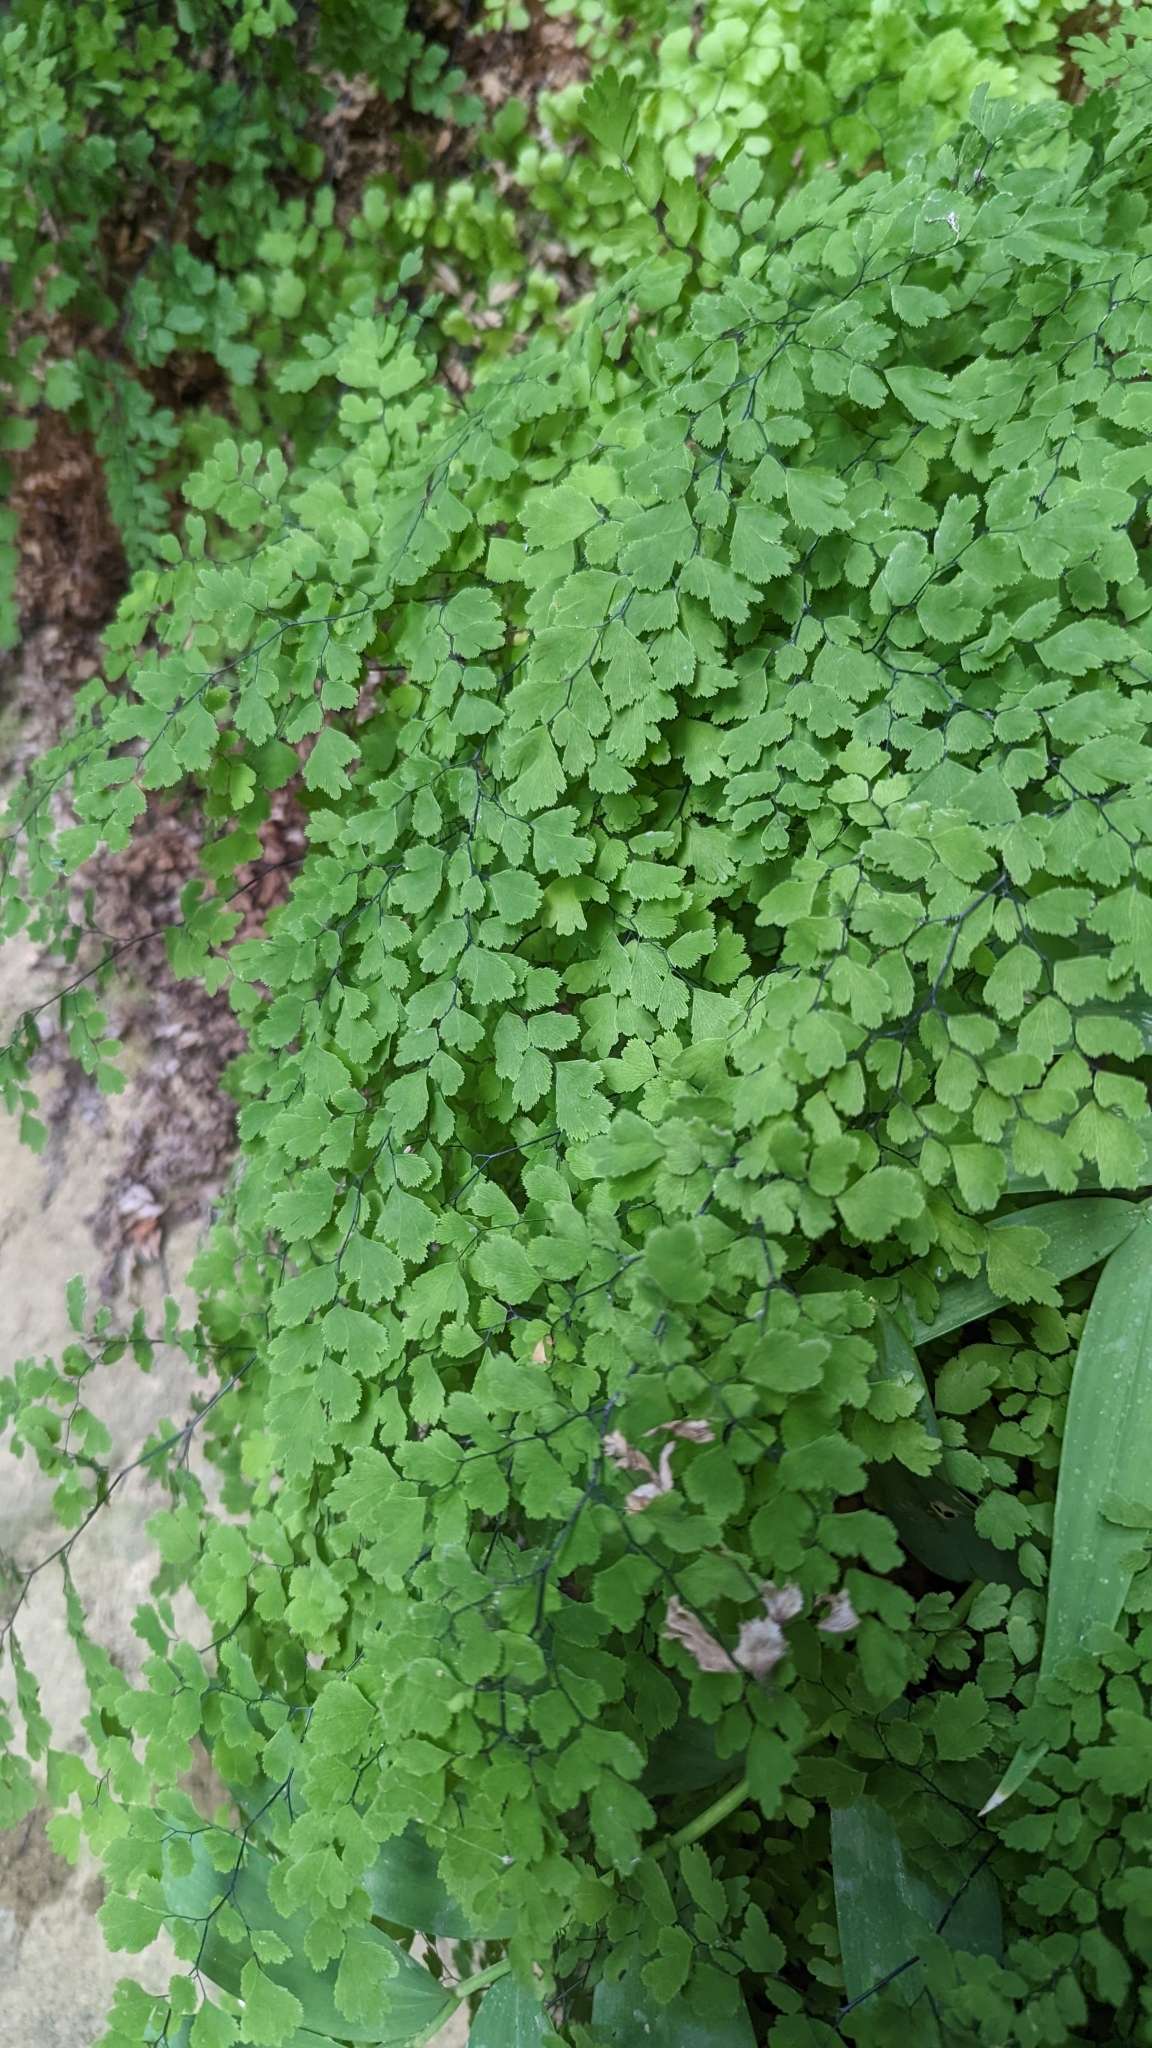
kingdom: Plantae
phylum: Tracheophyta
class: Polypodiopsida
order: Polypodiales
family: Pteridaceae
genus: Adiantum
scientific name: Adiantum capillus-veneris
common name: Maidenhair fern
